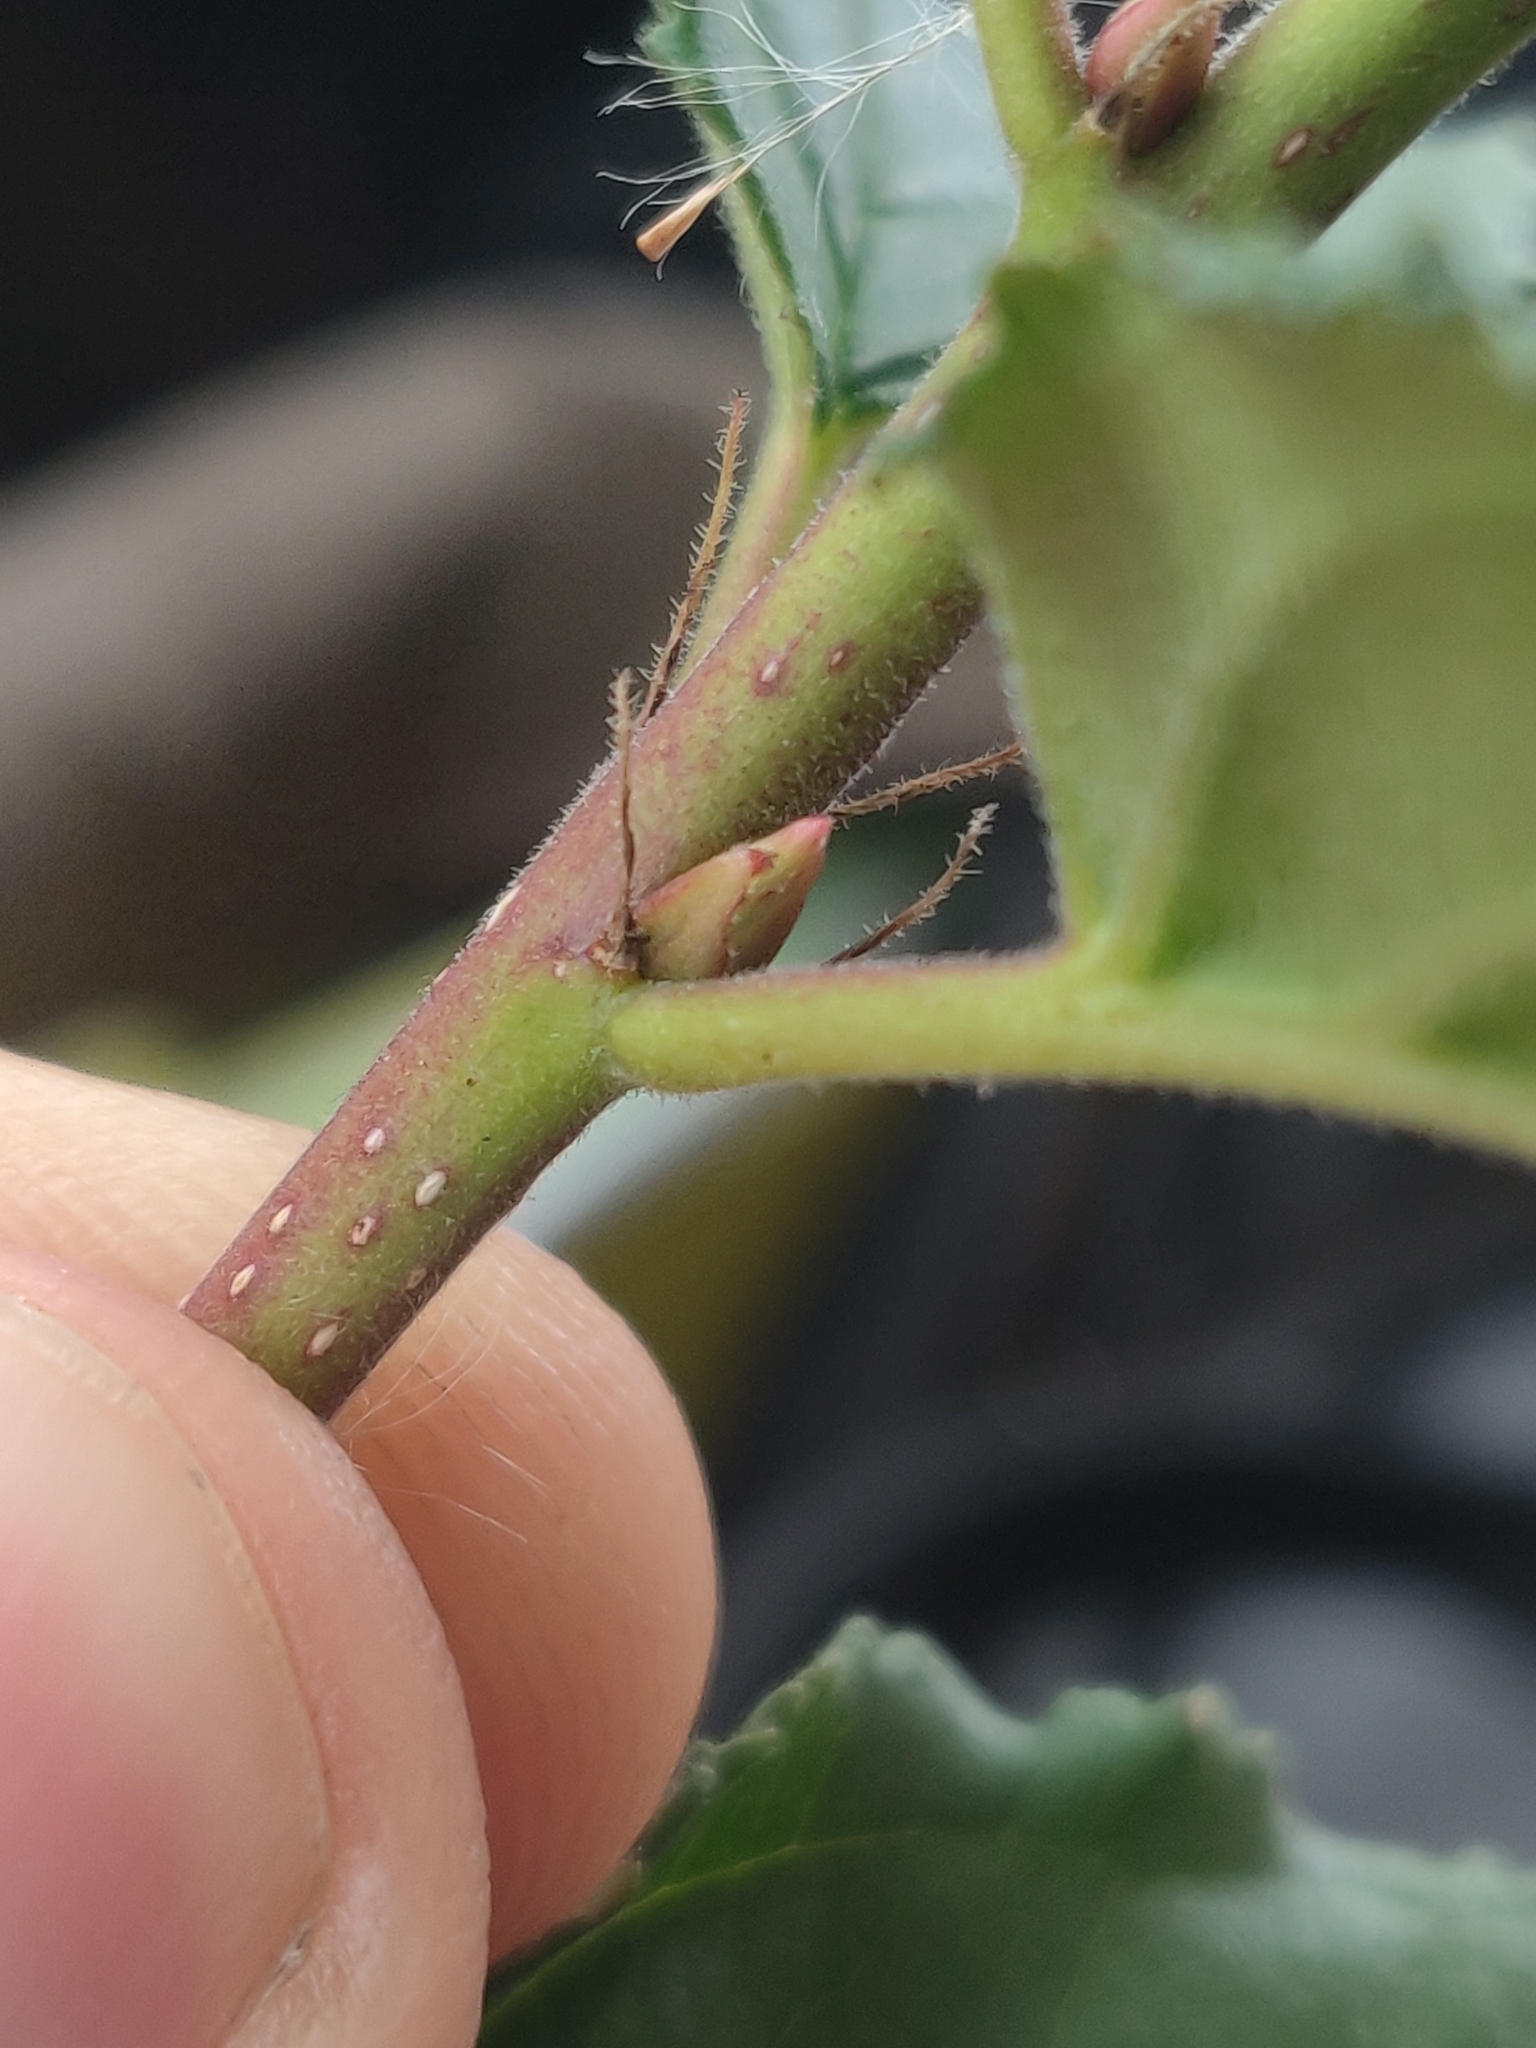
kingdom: Plantae
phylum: Tracheophyta
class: Magnoliopsida
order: Rosales
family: Rhamnaceae
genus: Rhamnus
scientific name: Rhamnus cathartica
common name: Common buckthorn
